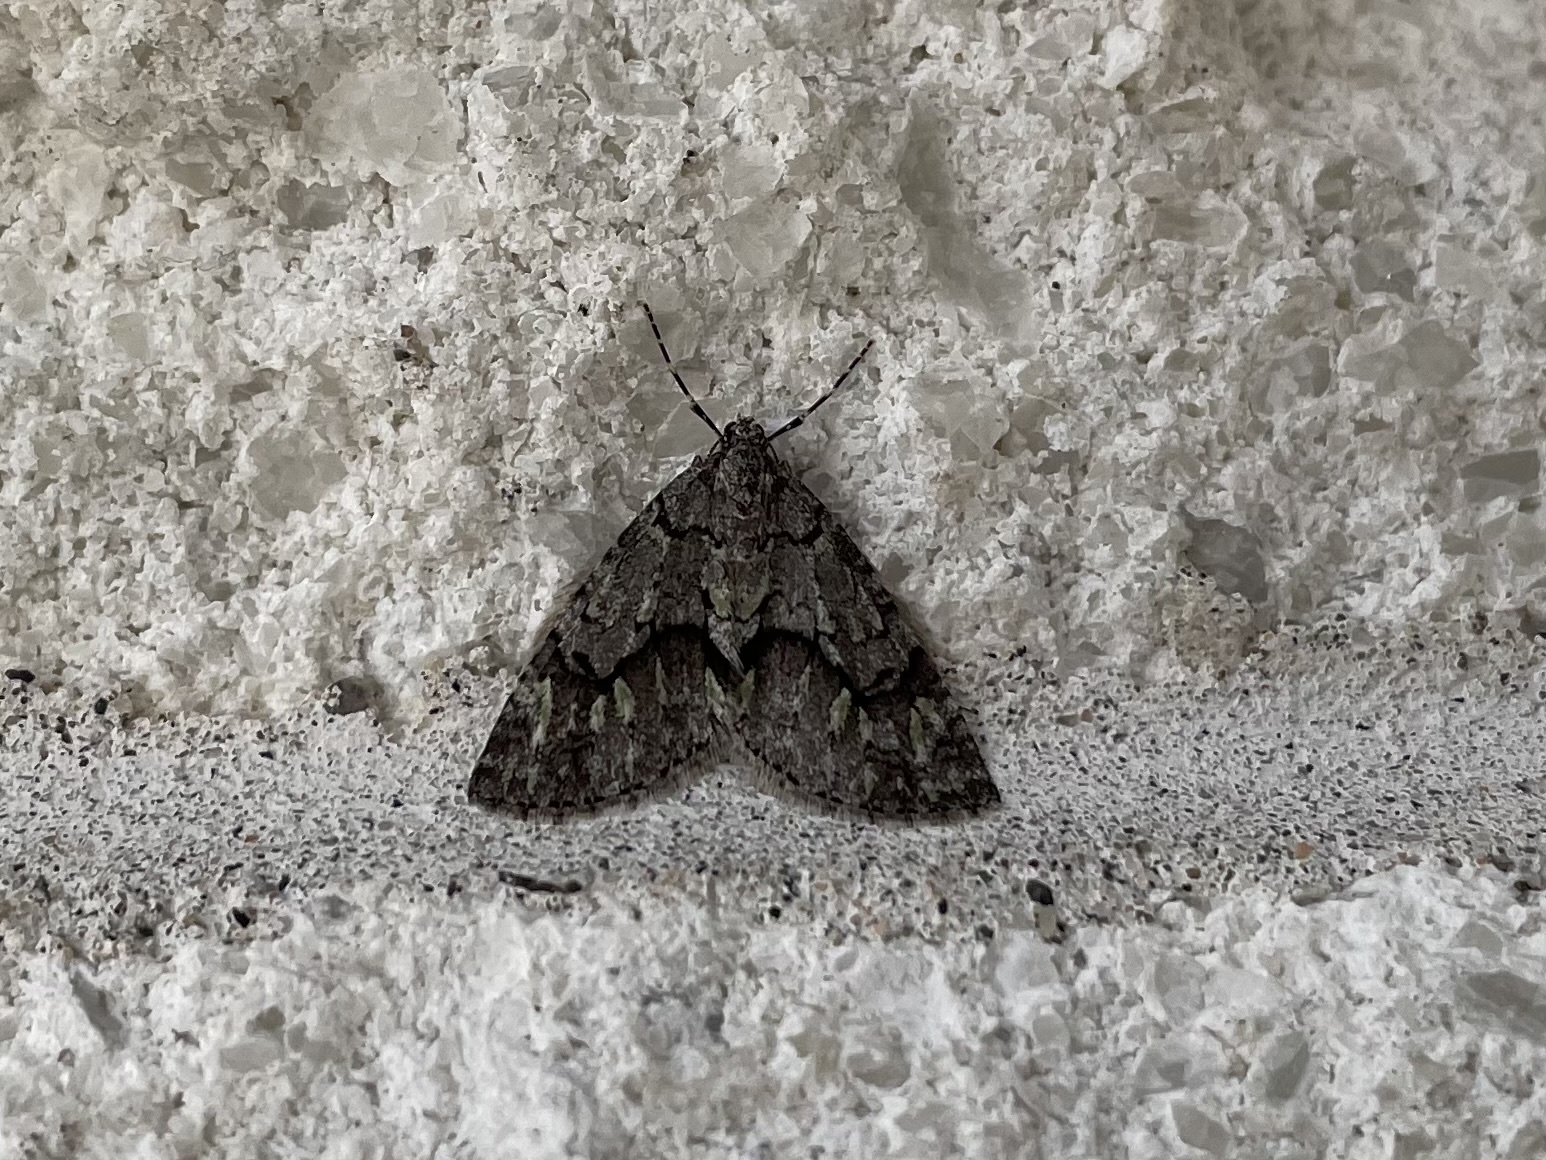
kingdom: Animalia
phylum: Arthropoda
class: Insecta
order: Lepidoptera
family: Geometridae
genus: Cladara
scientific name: Cladara limitaria
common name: Mottled gray carpet
